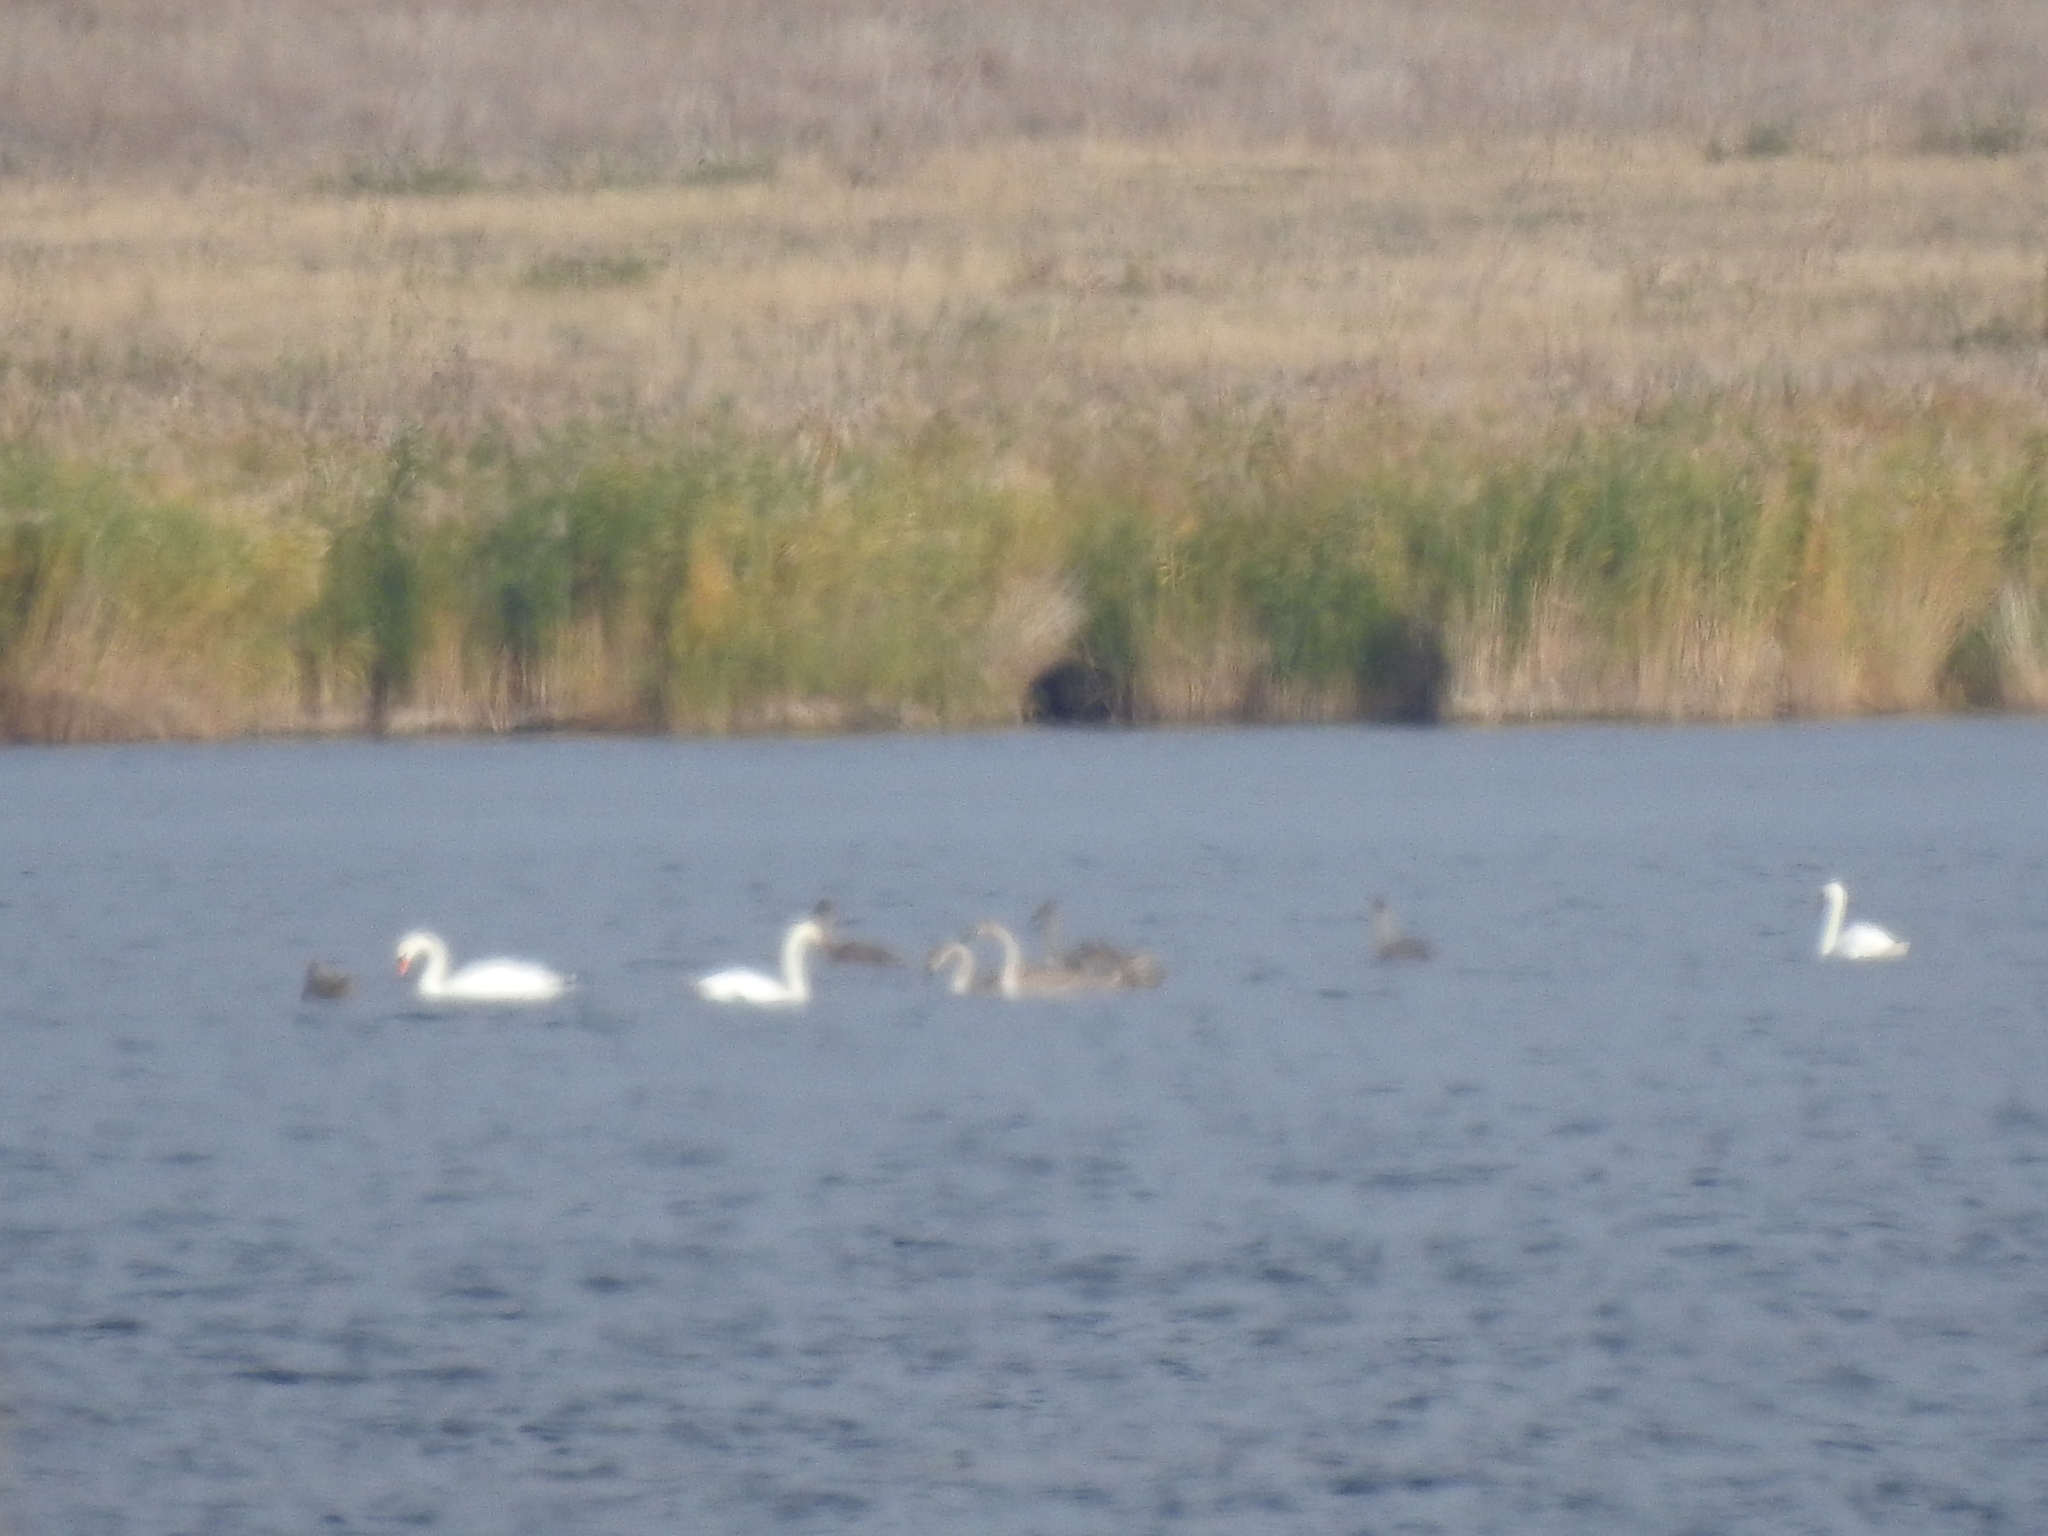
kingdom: Animalia
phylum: Chordata
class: Aves
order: Anseriformes
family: Anatidae
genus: Cygnus
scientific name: Cygnus olor
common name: Mute swan
